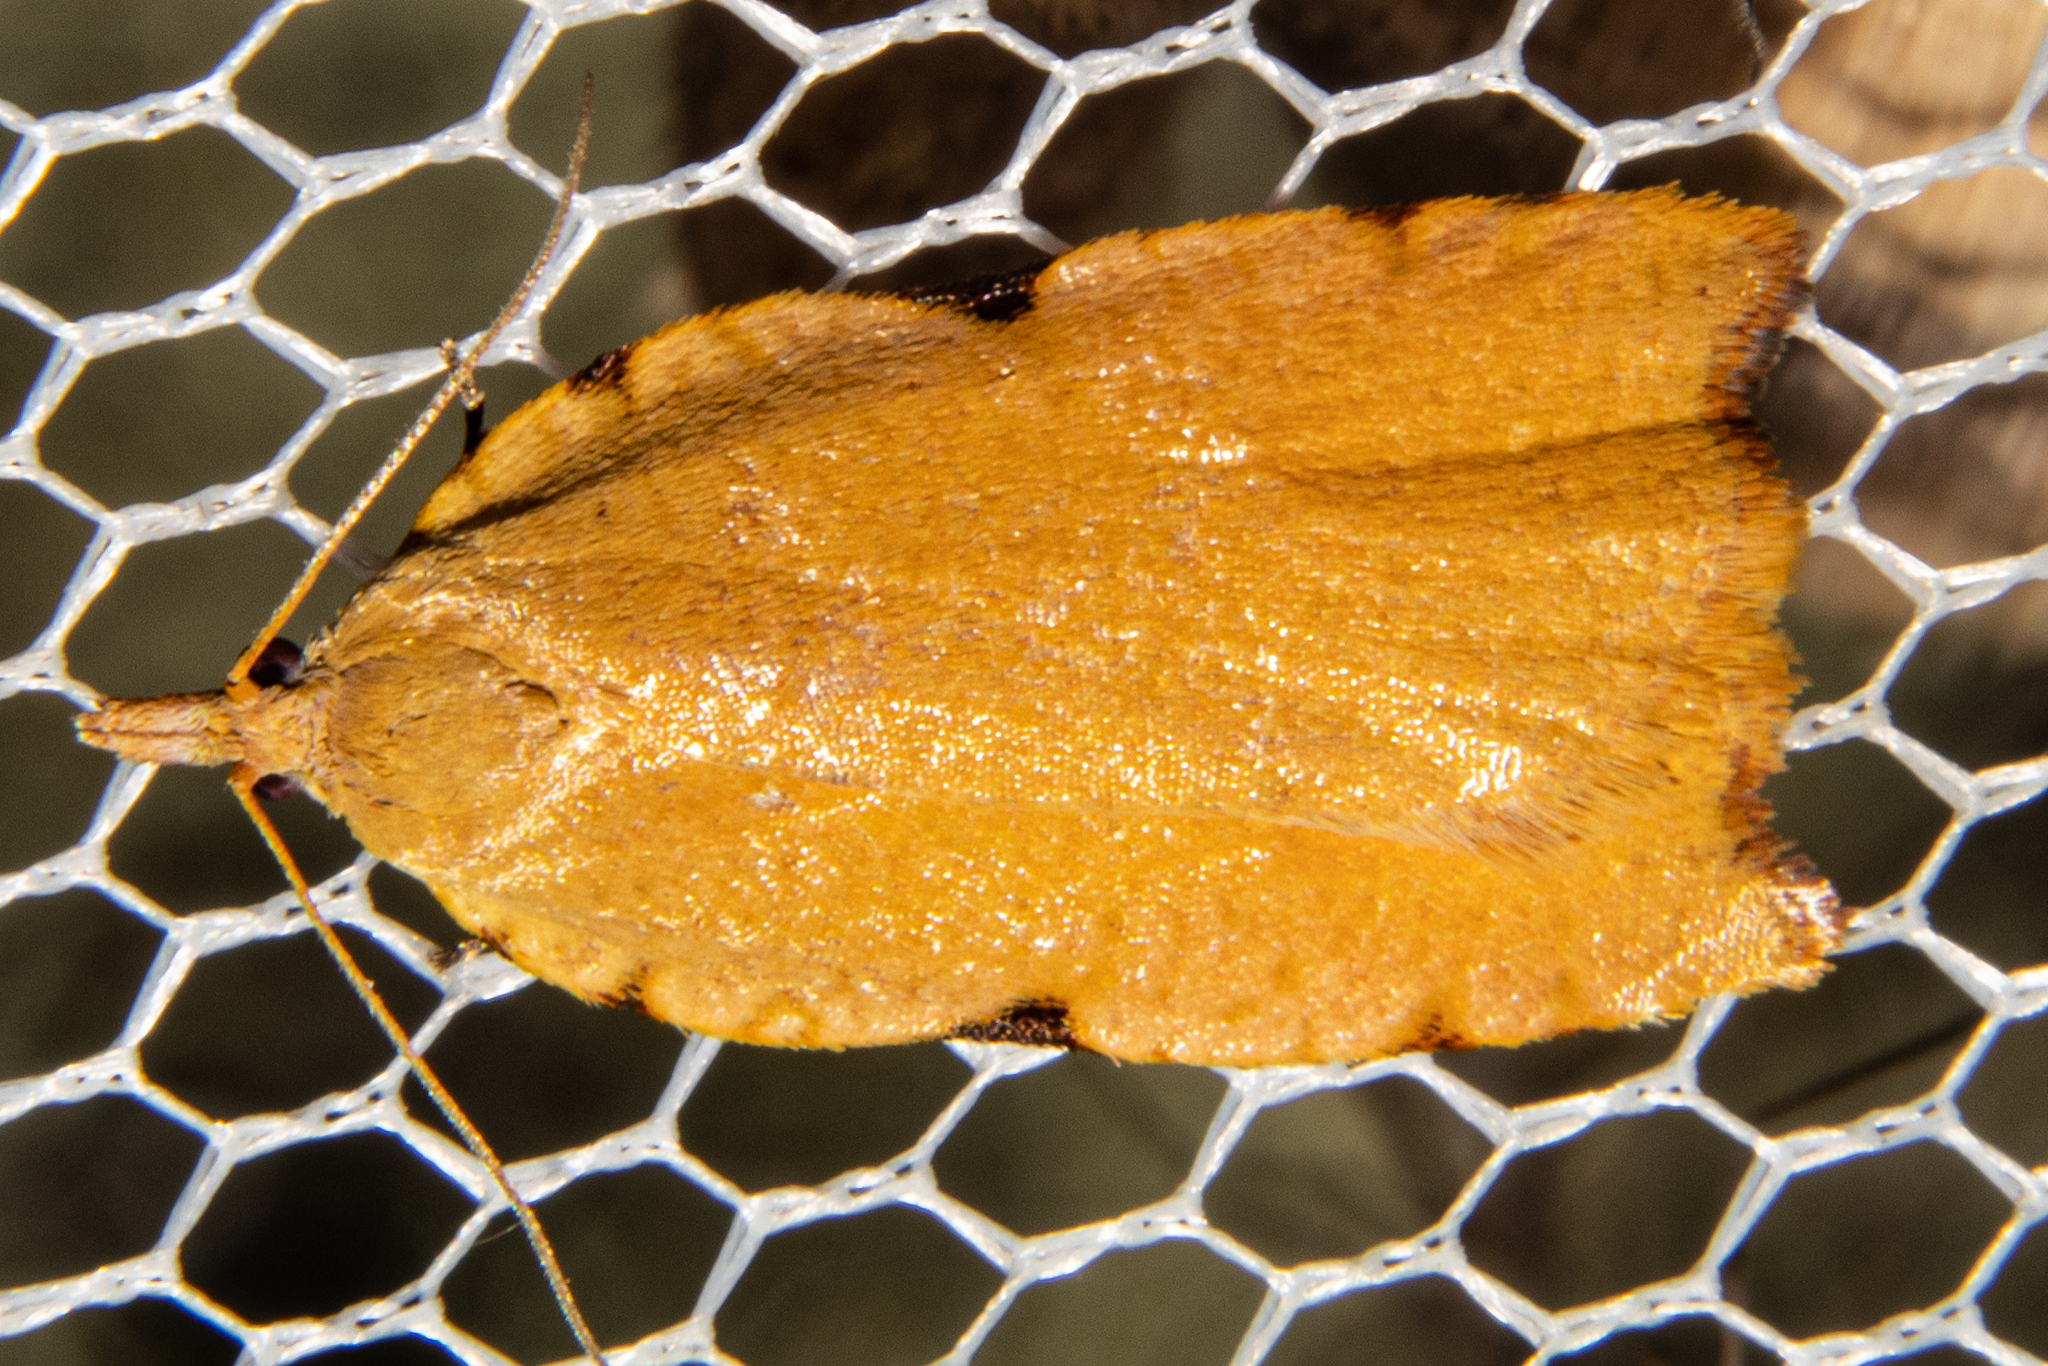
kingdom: Animalia
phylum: Arthropoda
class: Insecta
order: Lepidoptera
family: Tortricidae
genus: Apoctena
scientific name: Apoctena flavescens
